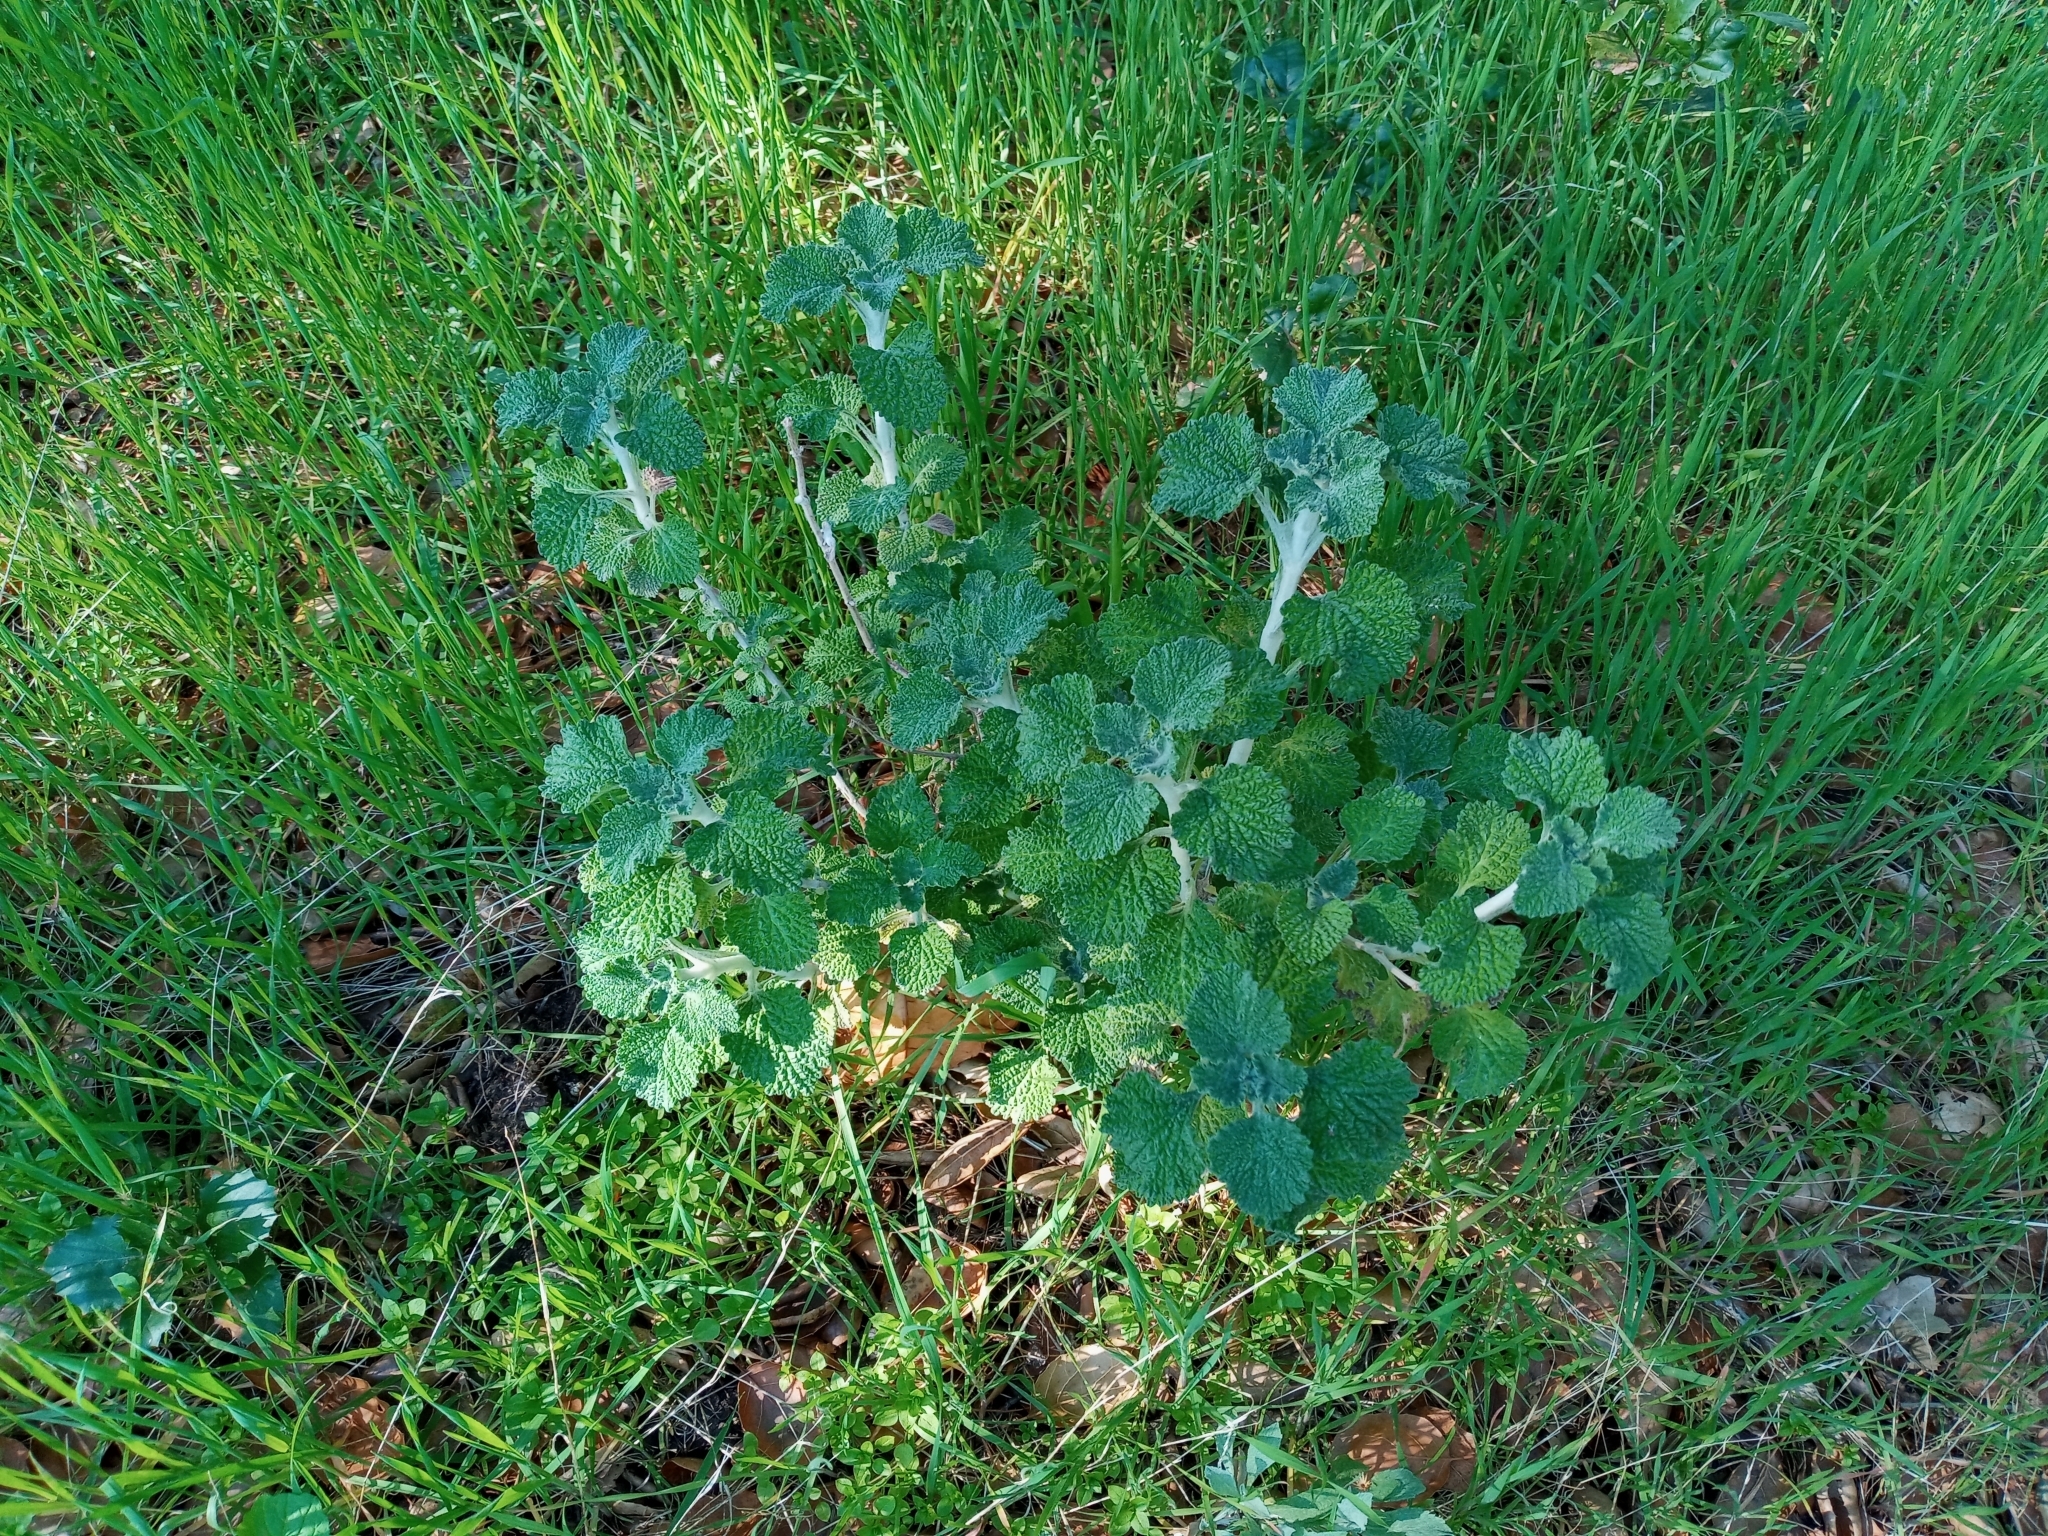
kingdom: Plantae
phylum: Tracheophyta
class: Magnoliopsida
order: Lamiales
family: Lamiaceae
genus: Marrubium
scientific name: Marrubium vulgare
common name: Horehound
